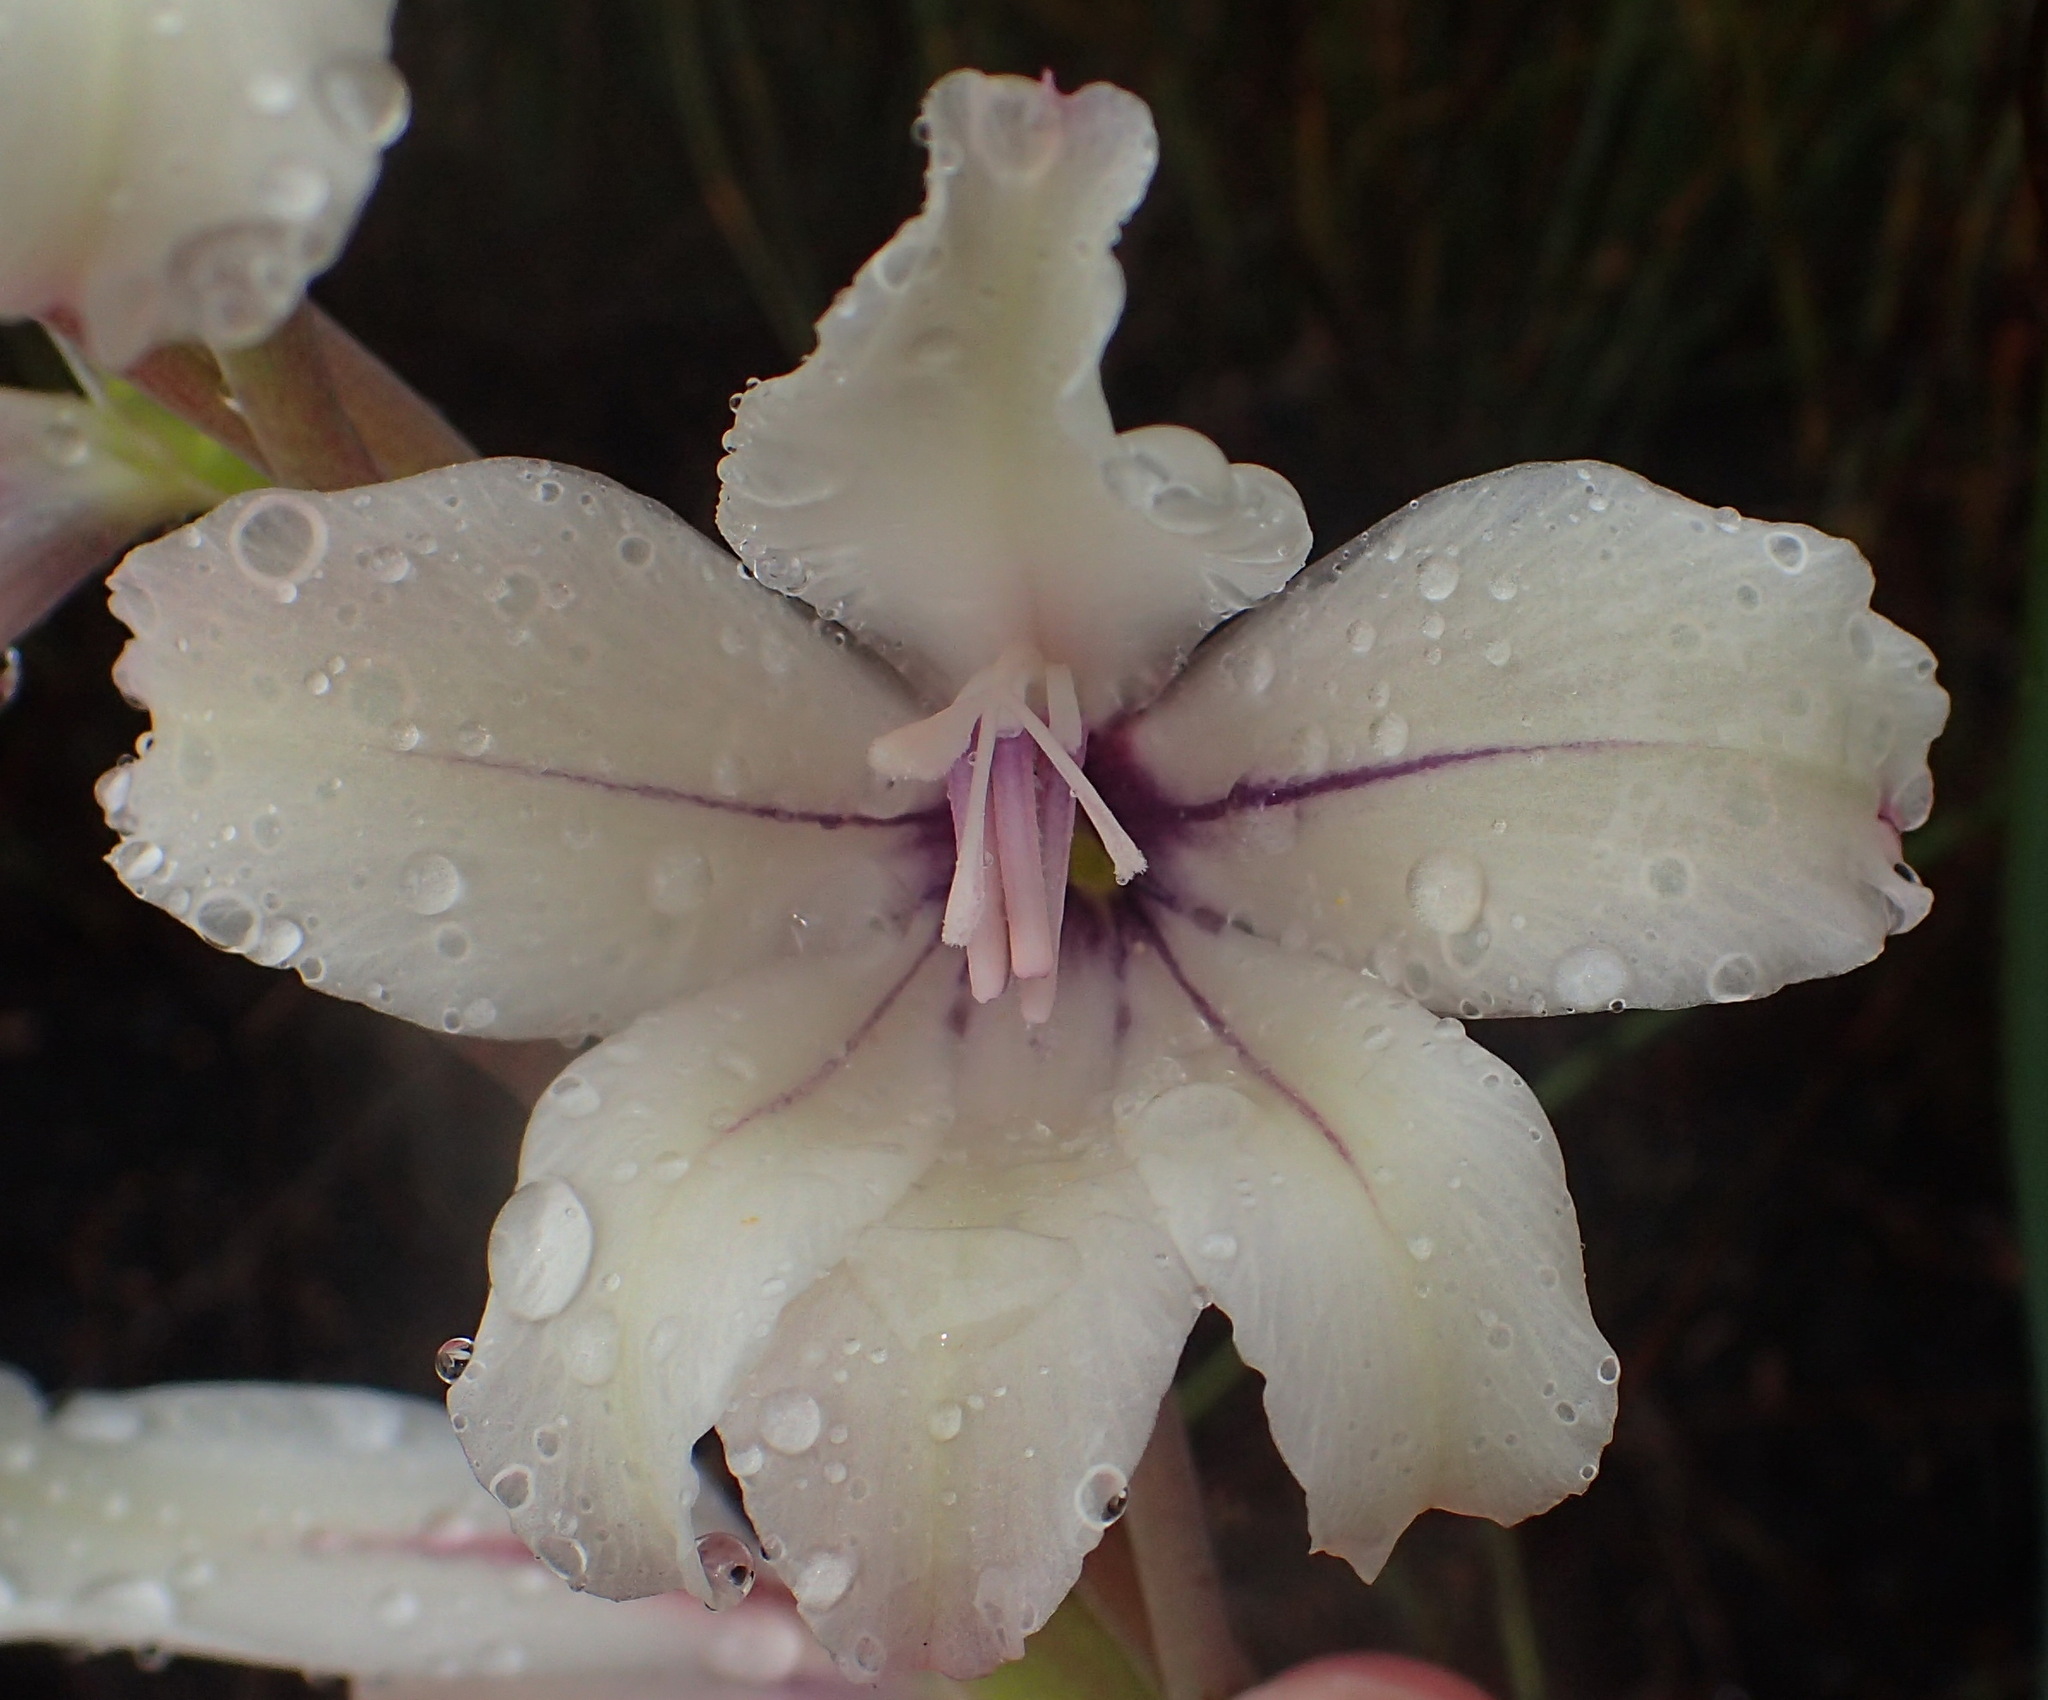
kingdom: Plantae
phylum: Tracheophyta
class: Liliopsida
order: Asparagales
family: Iridaceae
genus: Gladiolus
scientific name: Gladiolus floribundus
